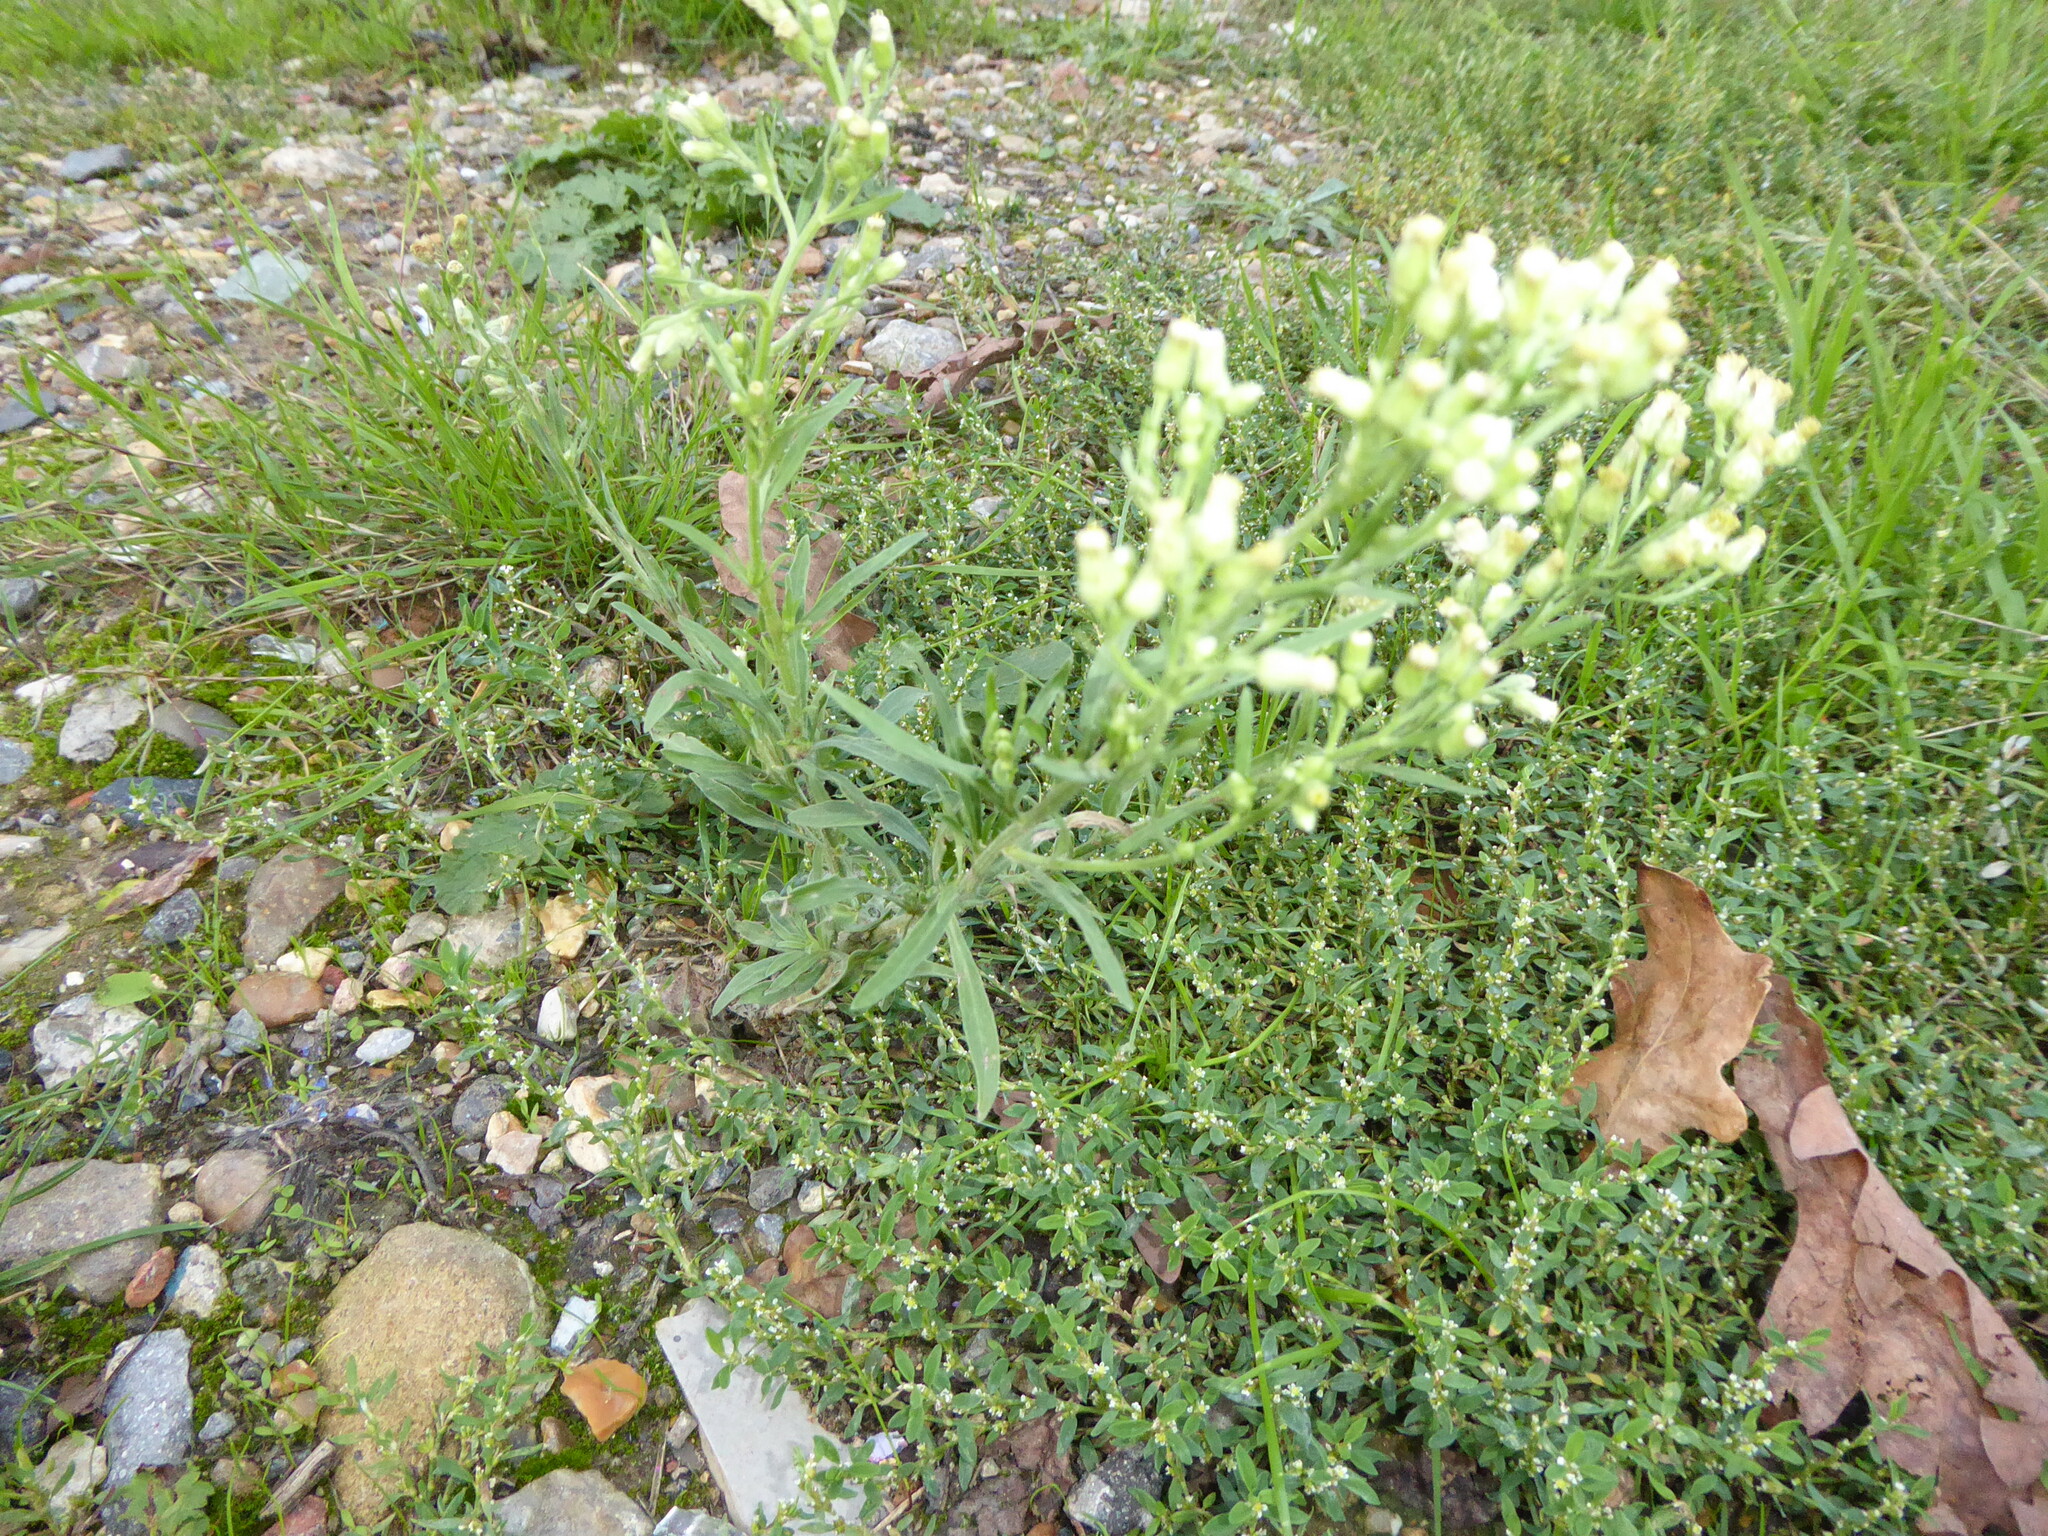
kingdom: Plantae
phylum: Tracheophyta
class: Magnoliopsida
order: Asterales
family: Asteraceae
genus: Erigeron
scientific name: Erigeron sumatrensis
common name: Daisy
